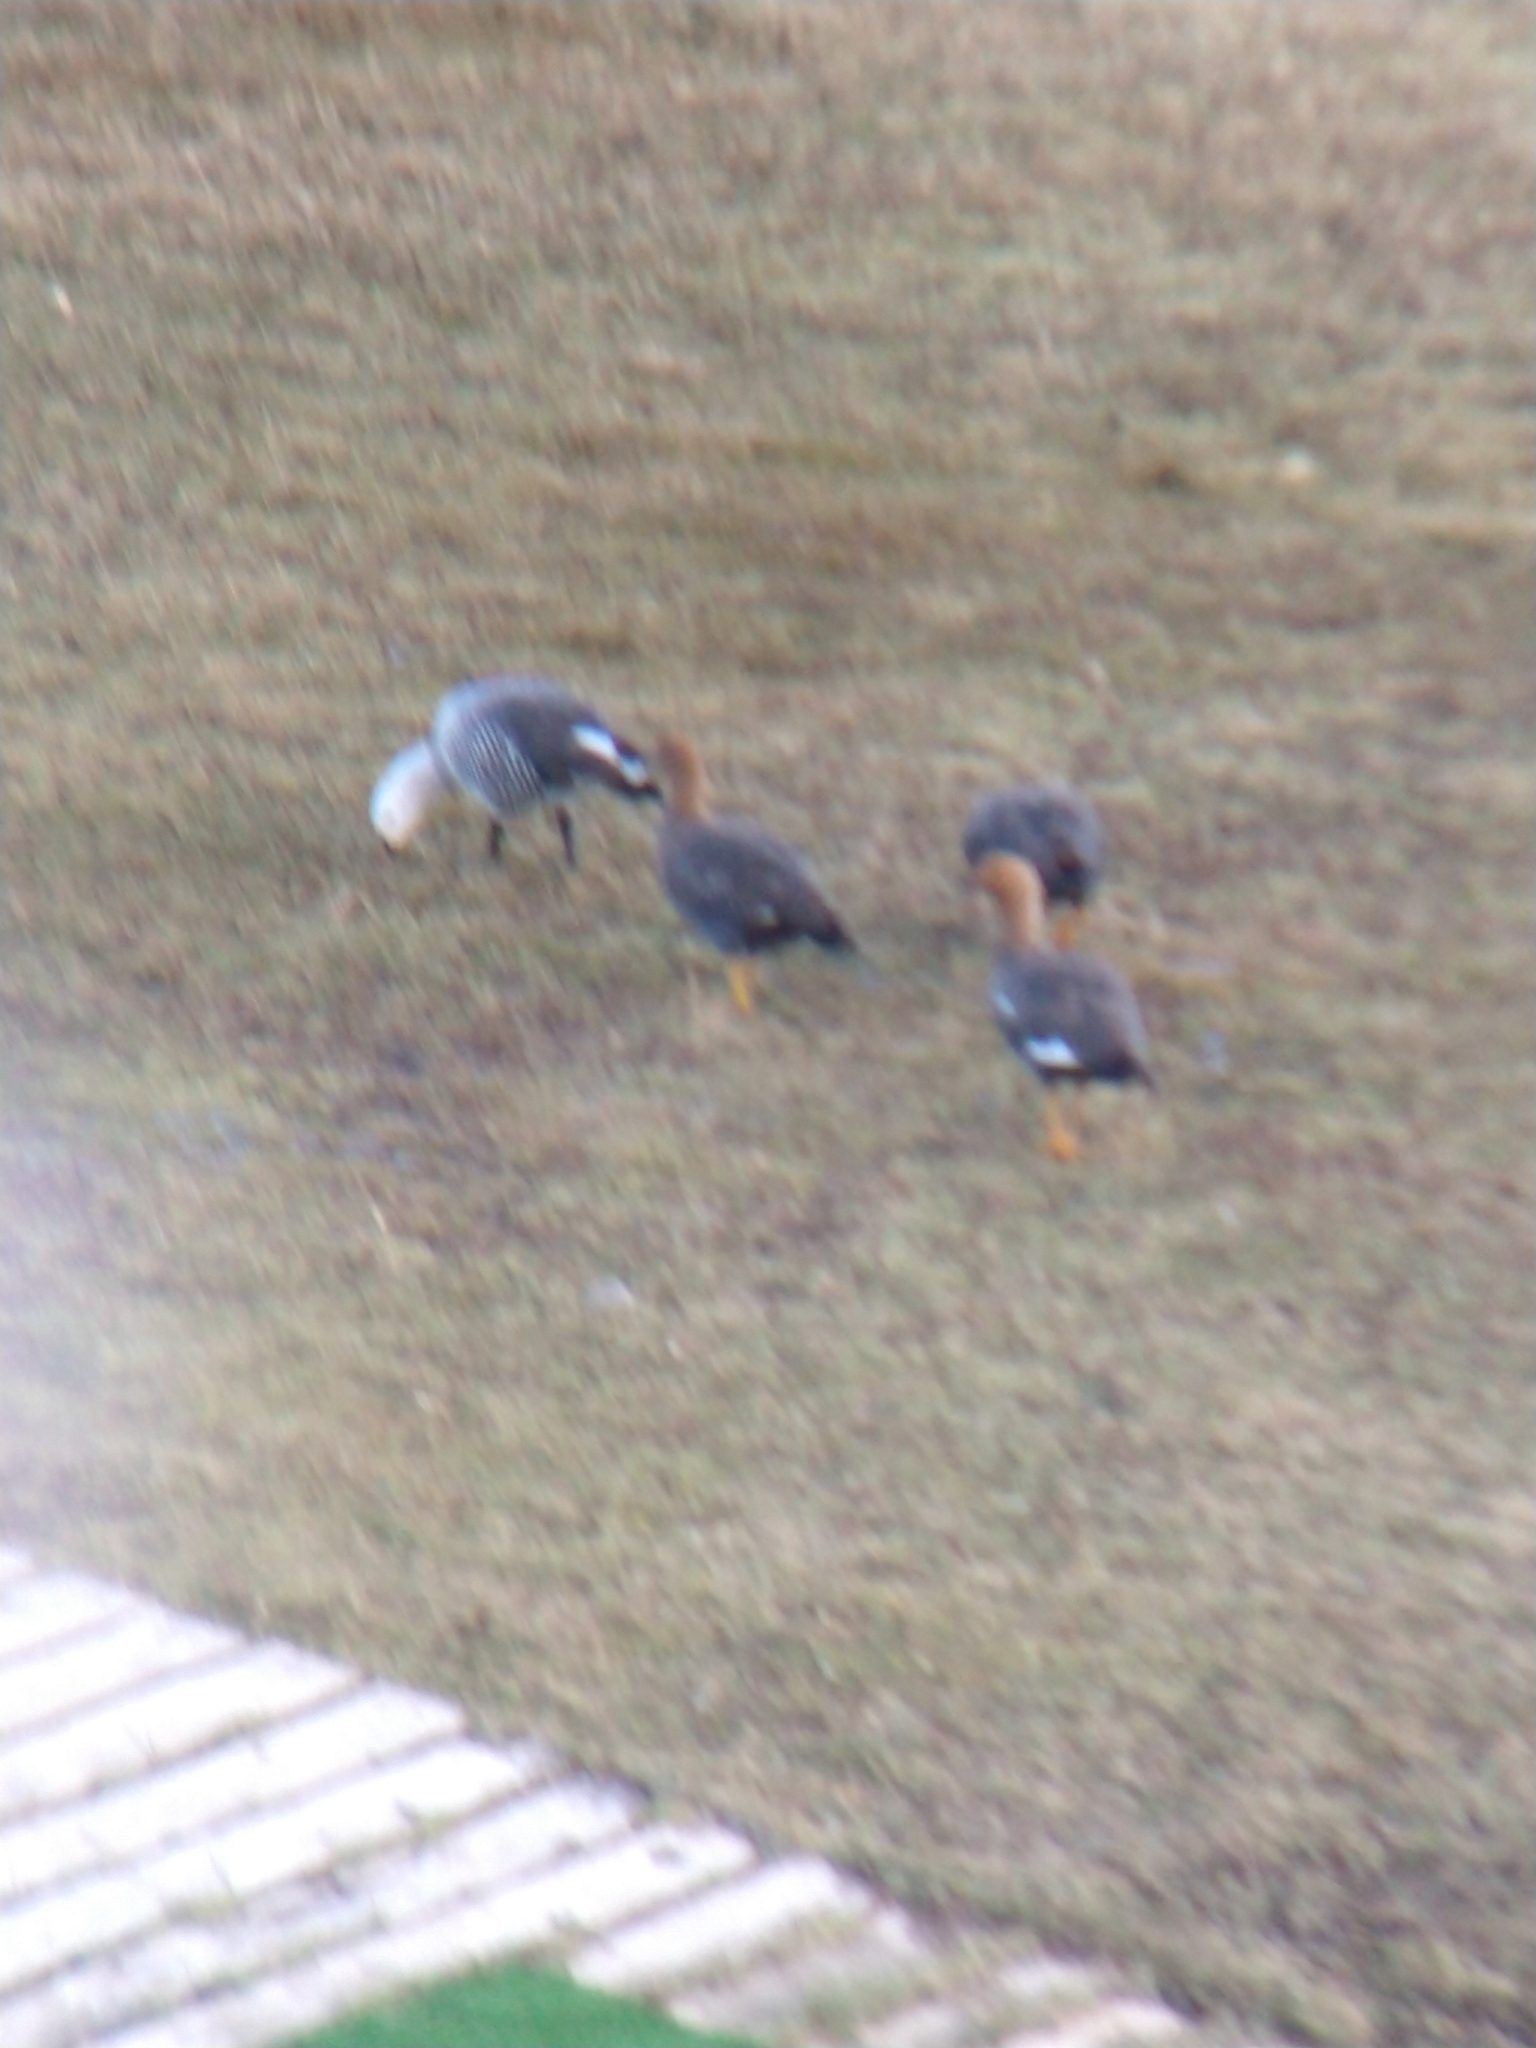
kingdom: Animalia
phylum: Chordata
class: Aves
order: Anseriformes
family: Anatidae
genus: Chloephaga
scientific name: Chloephaga picta
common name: Upland goose
